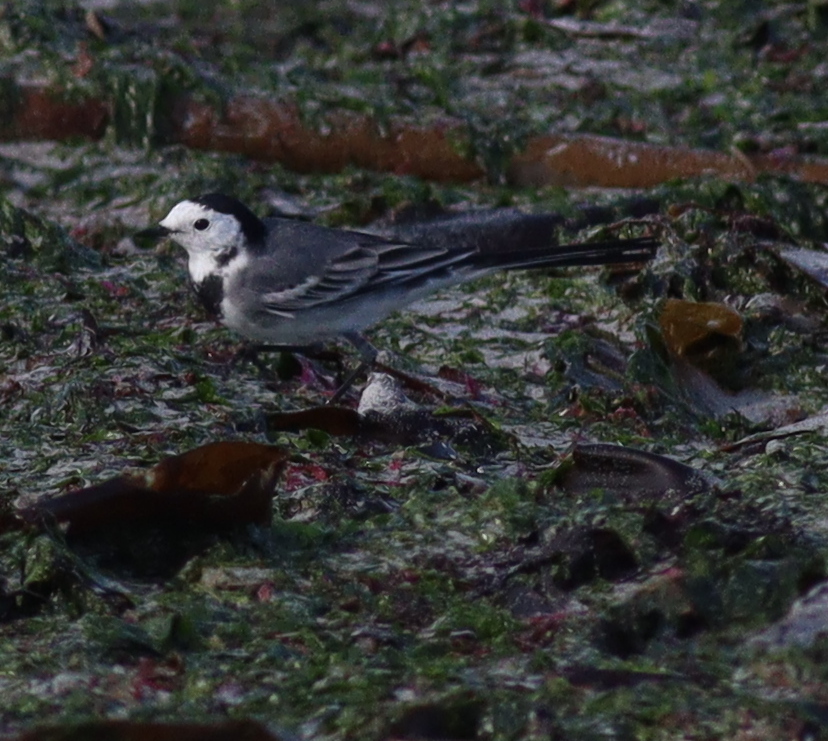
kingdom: Animalia
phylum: Chordata
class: Aves
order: Passeriformes
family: Motacillidae
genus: Motacilla
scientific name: Motacilla alba
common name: White wagtail
